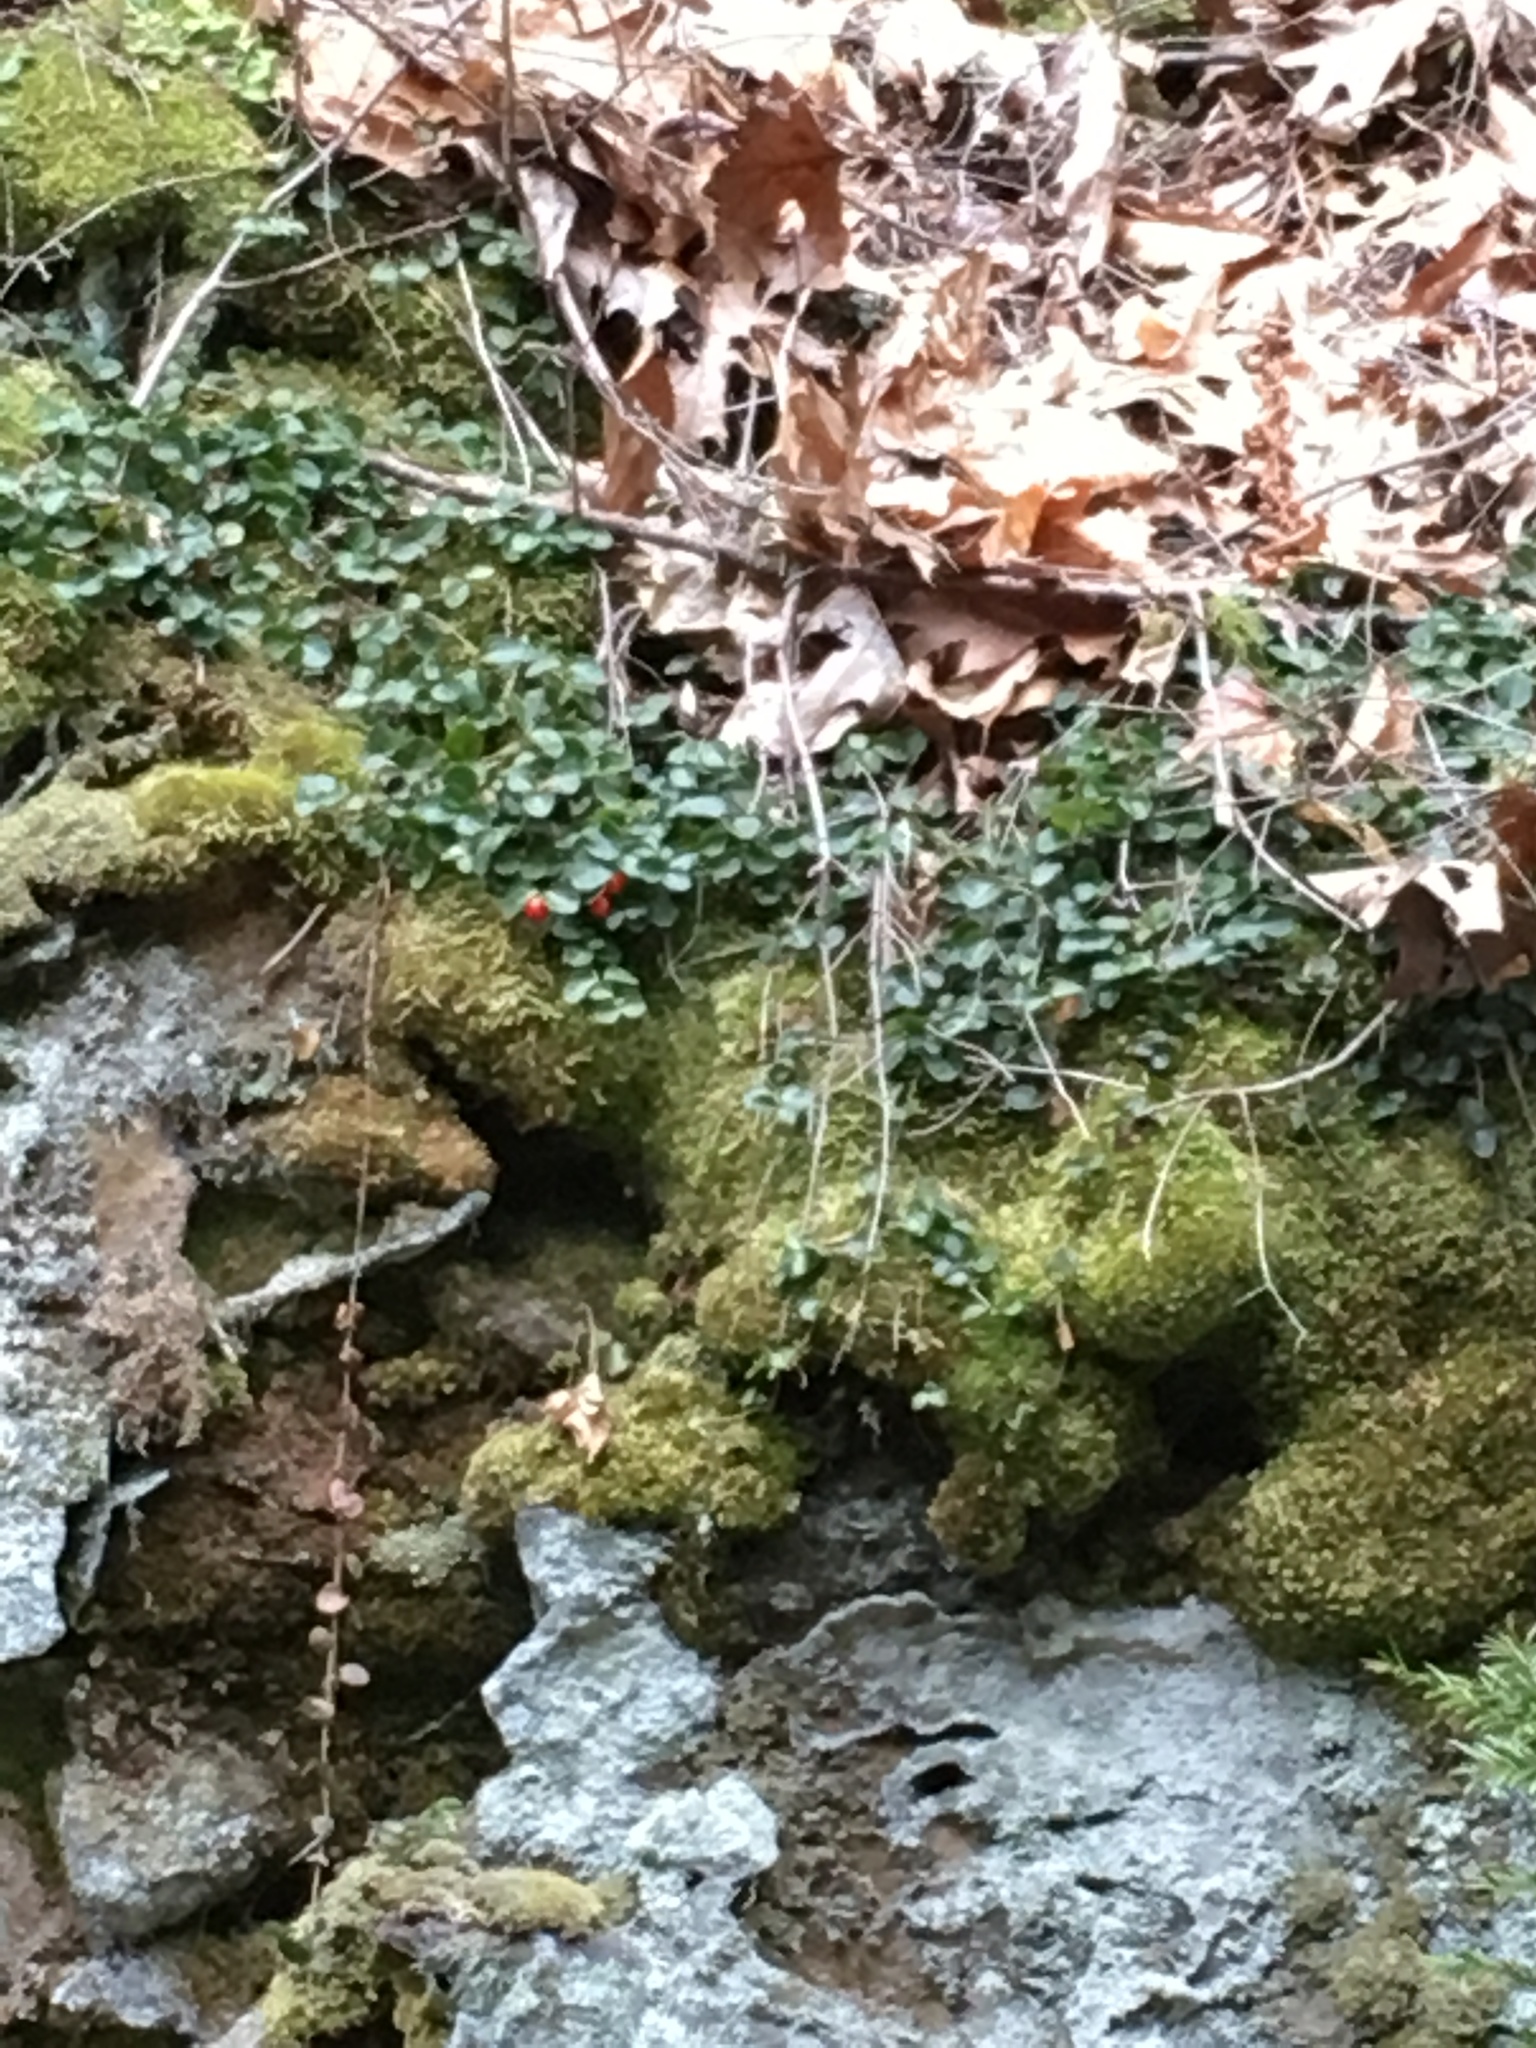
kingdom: Plantae
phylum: Tracheophyta
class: Magnoliopsida
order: Gentianales
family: Rubiaceae
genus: Mitchella
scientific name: Mitchella repens
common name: Partridge-berry
